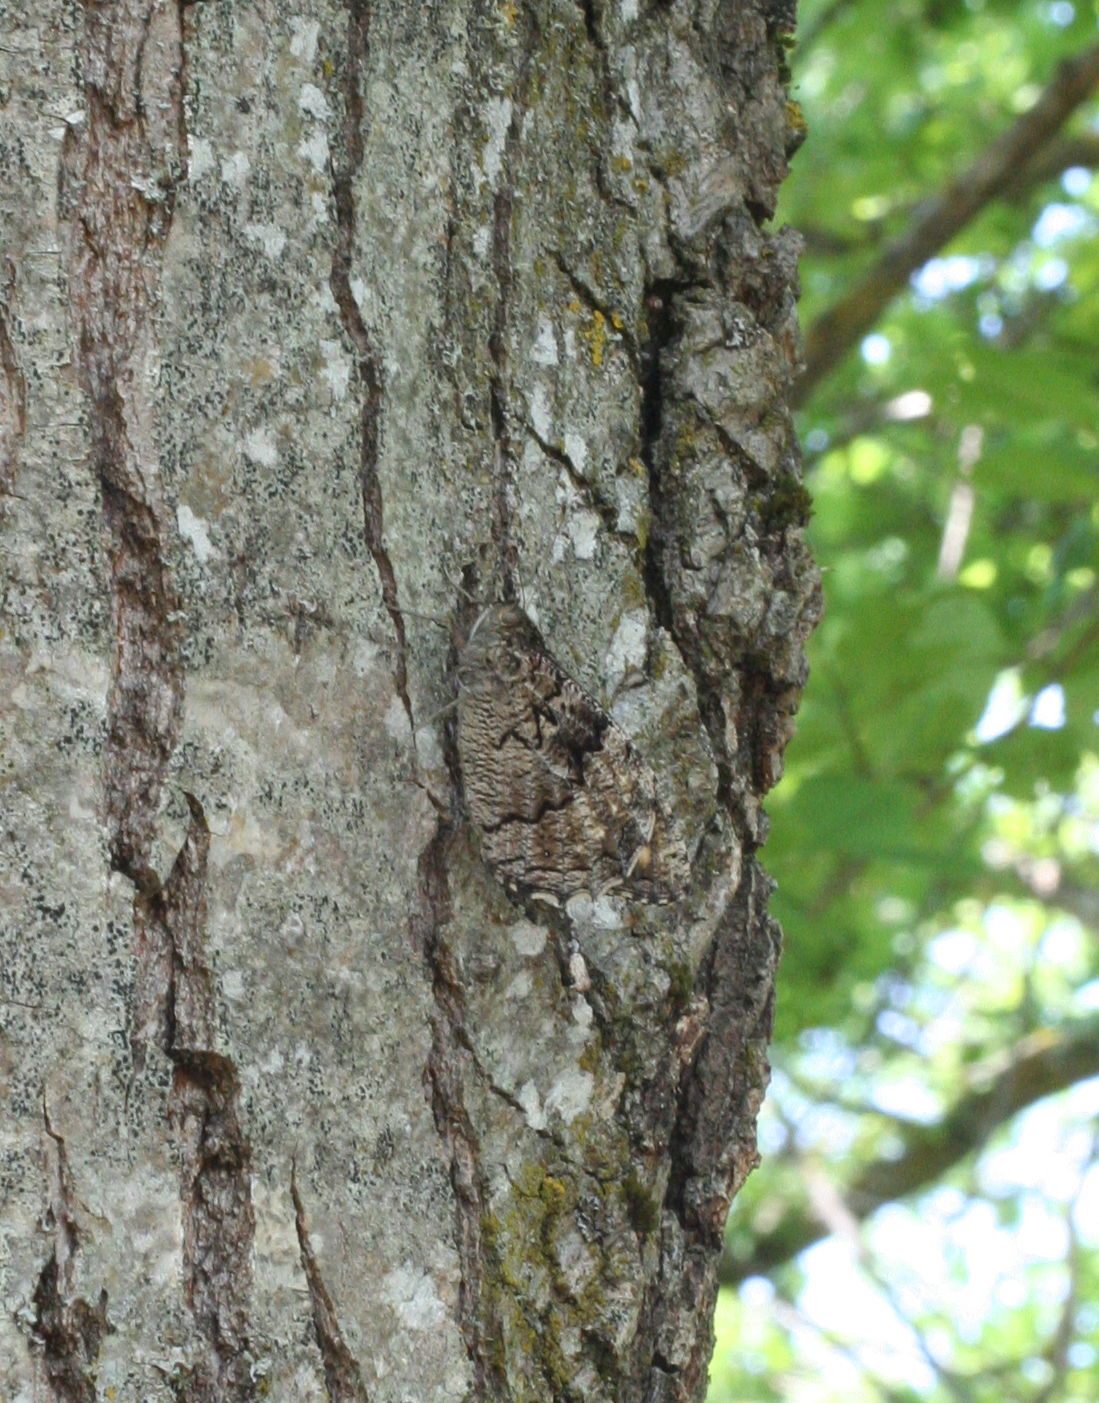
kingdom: Animalia
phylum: Arthropoda
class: Insecta
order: Lepidoptera
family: Nymphalidae
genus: Hipparchia
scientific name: Hipparchia syriaca
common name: Eastern rock grayling
